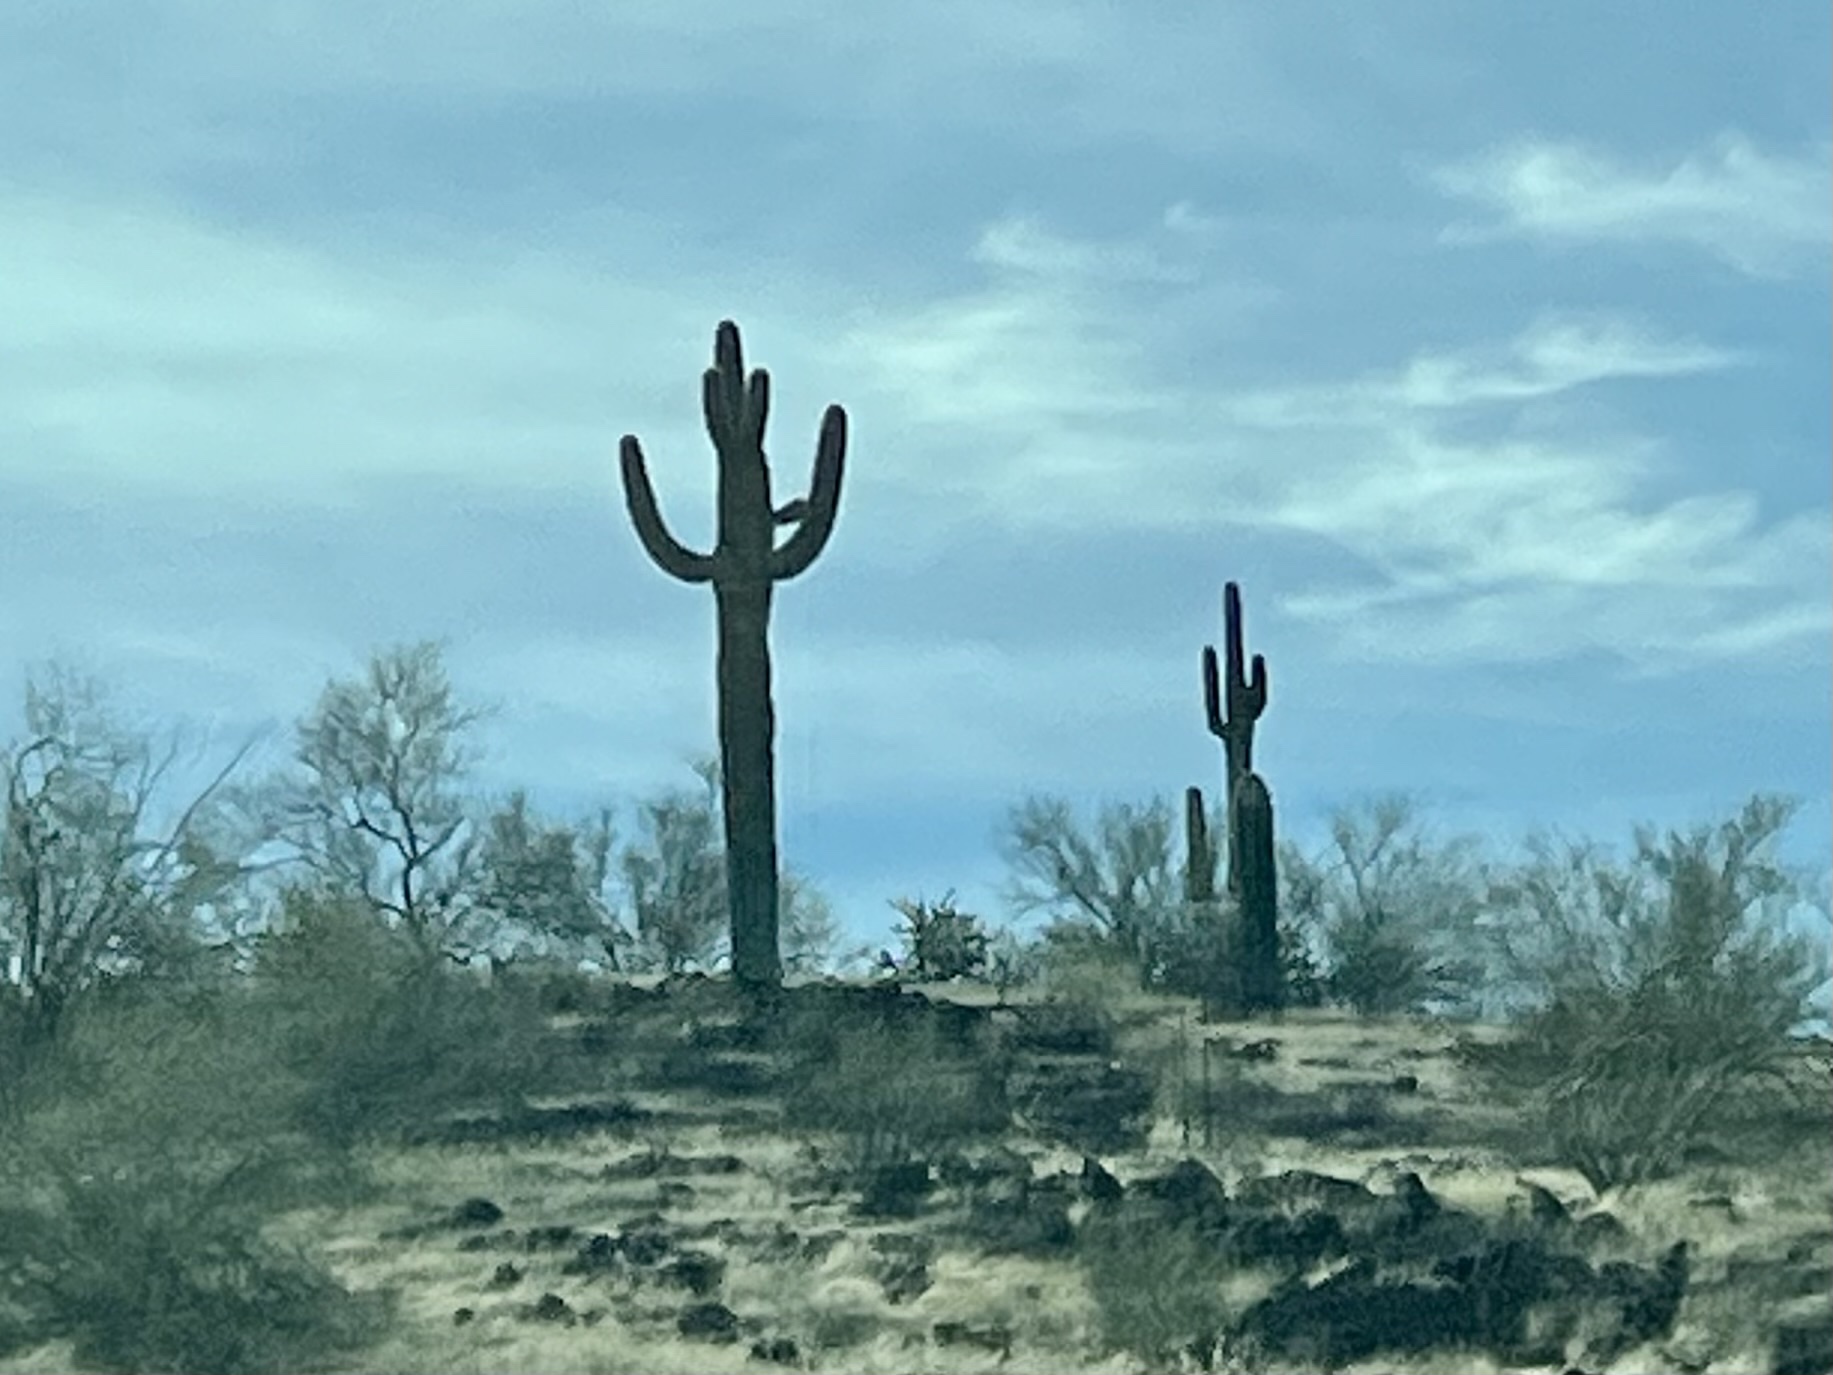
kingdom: Plantae
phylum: Tracheophyta
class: Magnoliopsida
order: Caryophyllales
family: Cactaceae
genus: Carnegiea
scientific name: Carnegiea gigantea
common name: Saguaro
